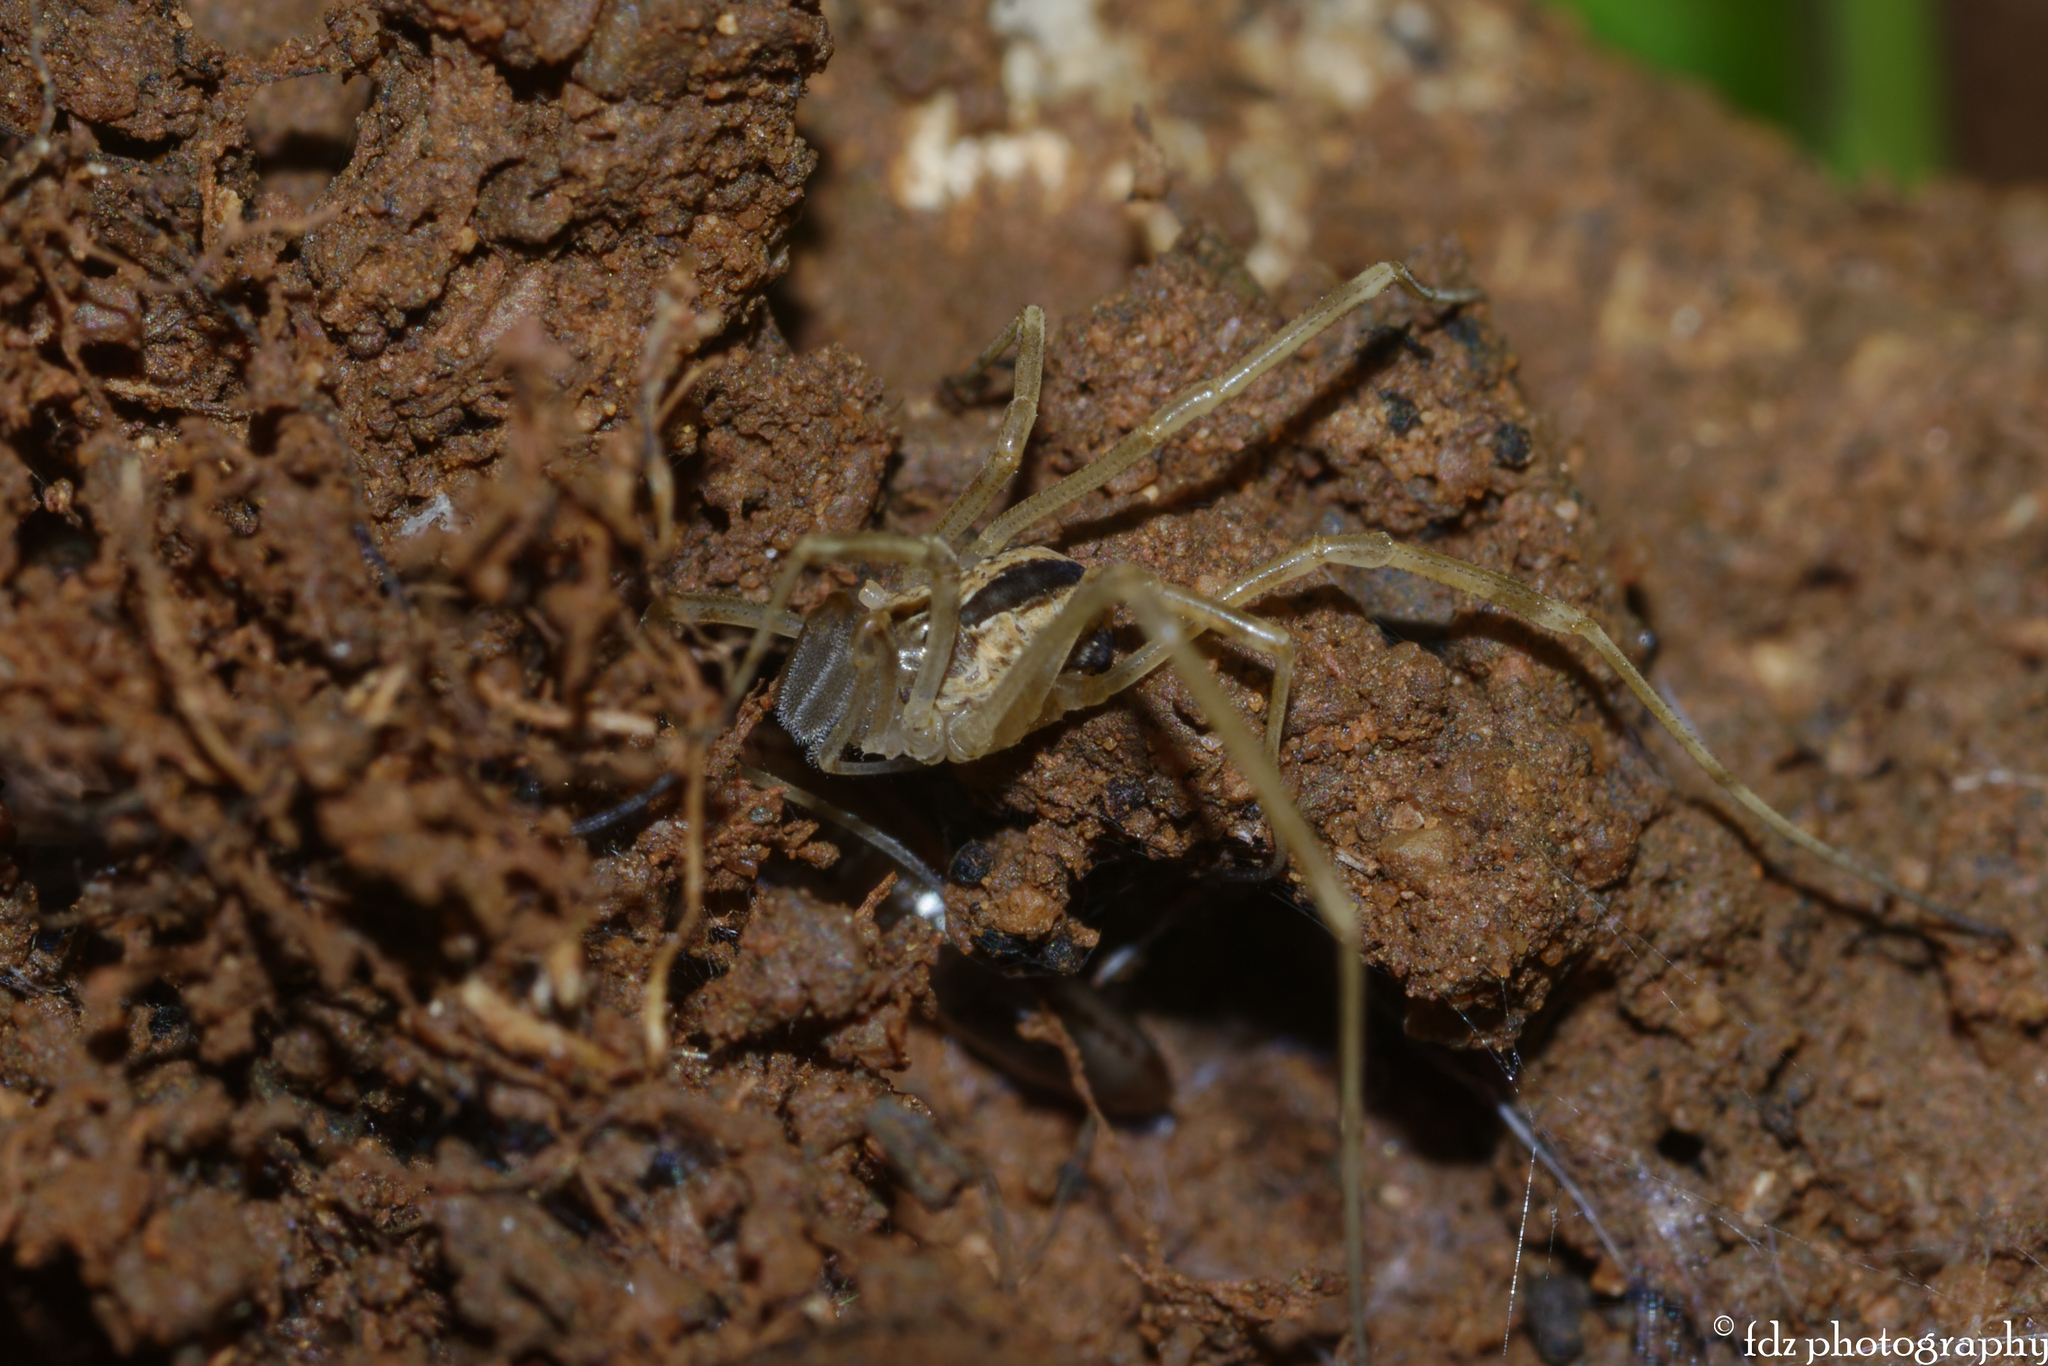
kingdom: Animalia
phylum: Arthropoda
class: Arachnida
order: Opiliones
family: Phalangiidae
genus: Dicranopalpus
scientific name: Dicranopalpus pulchellus
